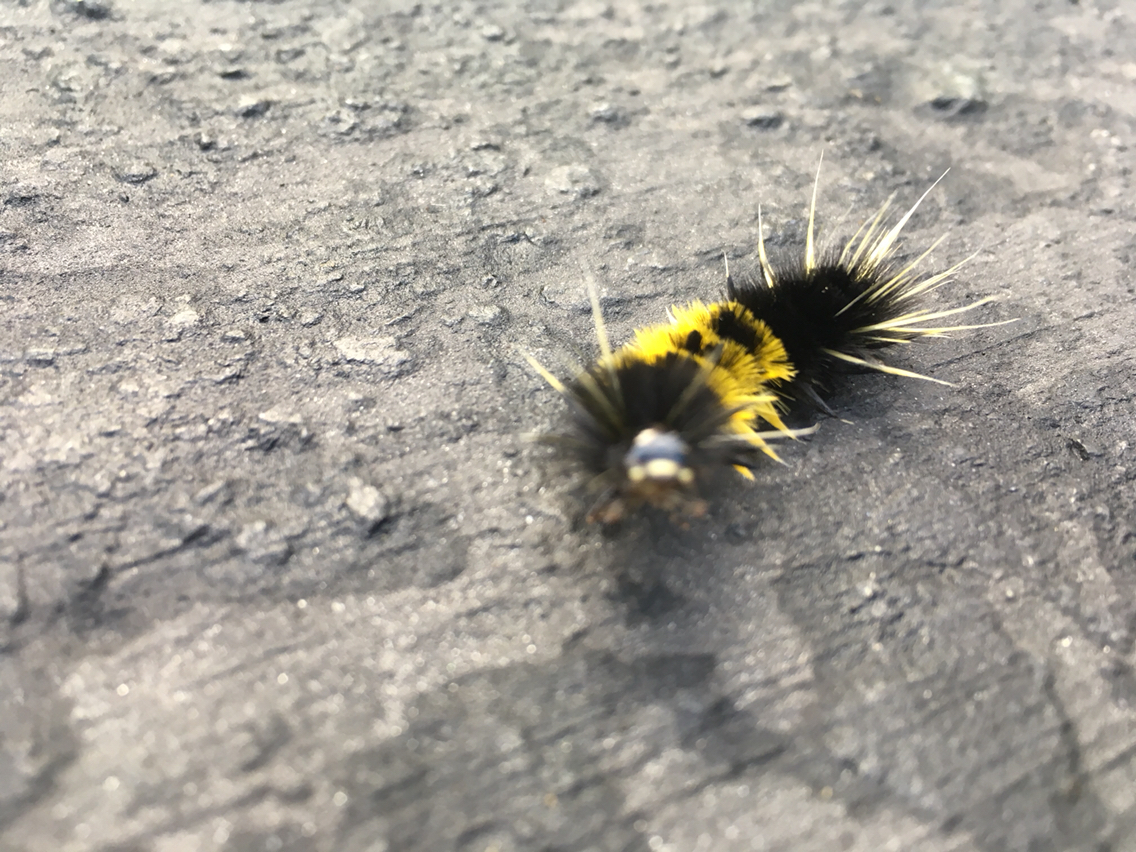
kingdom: Animalia
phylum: Arthropoda
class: Insecta
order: Lepidoptera
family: Erebidae
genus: Lophocampa
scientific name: Lophocampa maculata
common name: Spotted tussock moth
